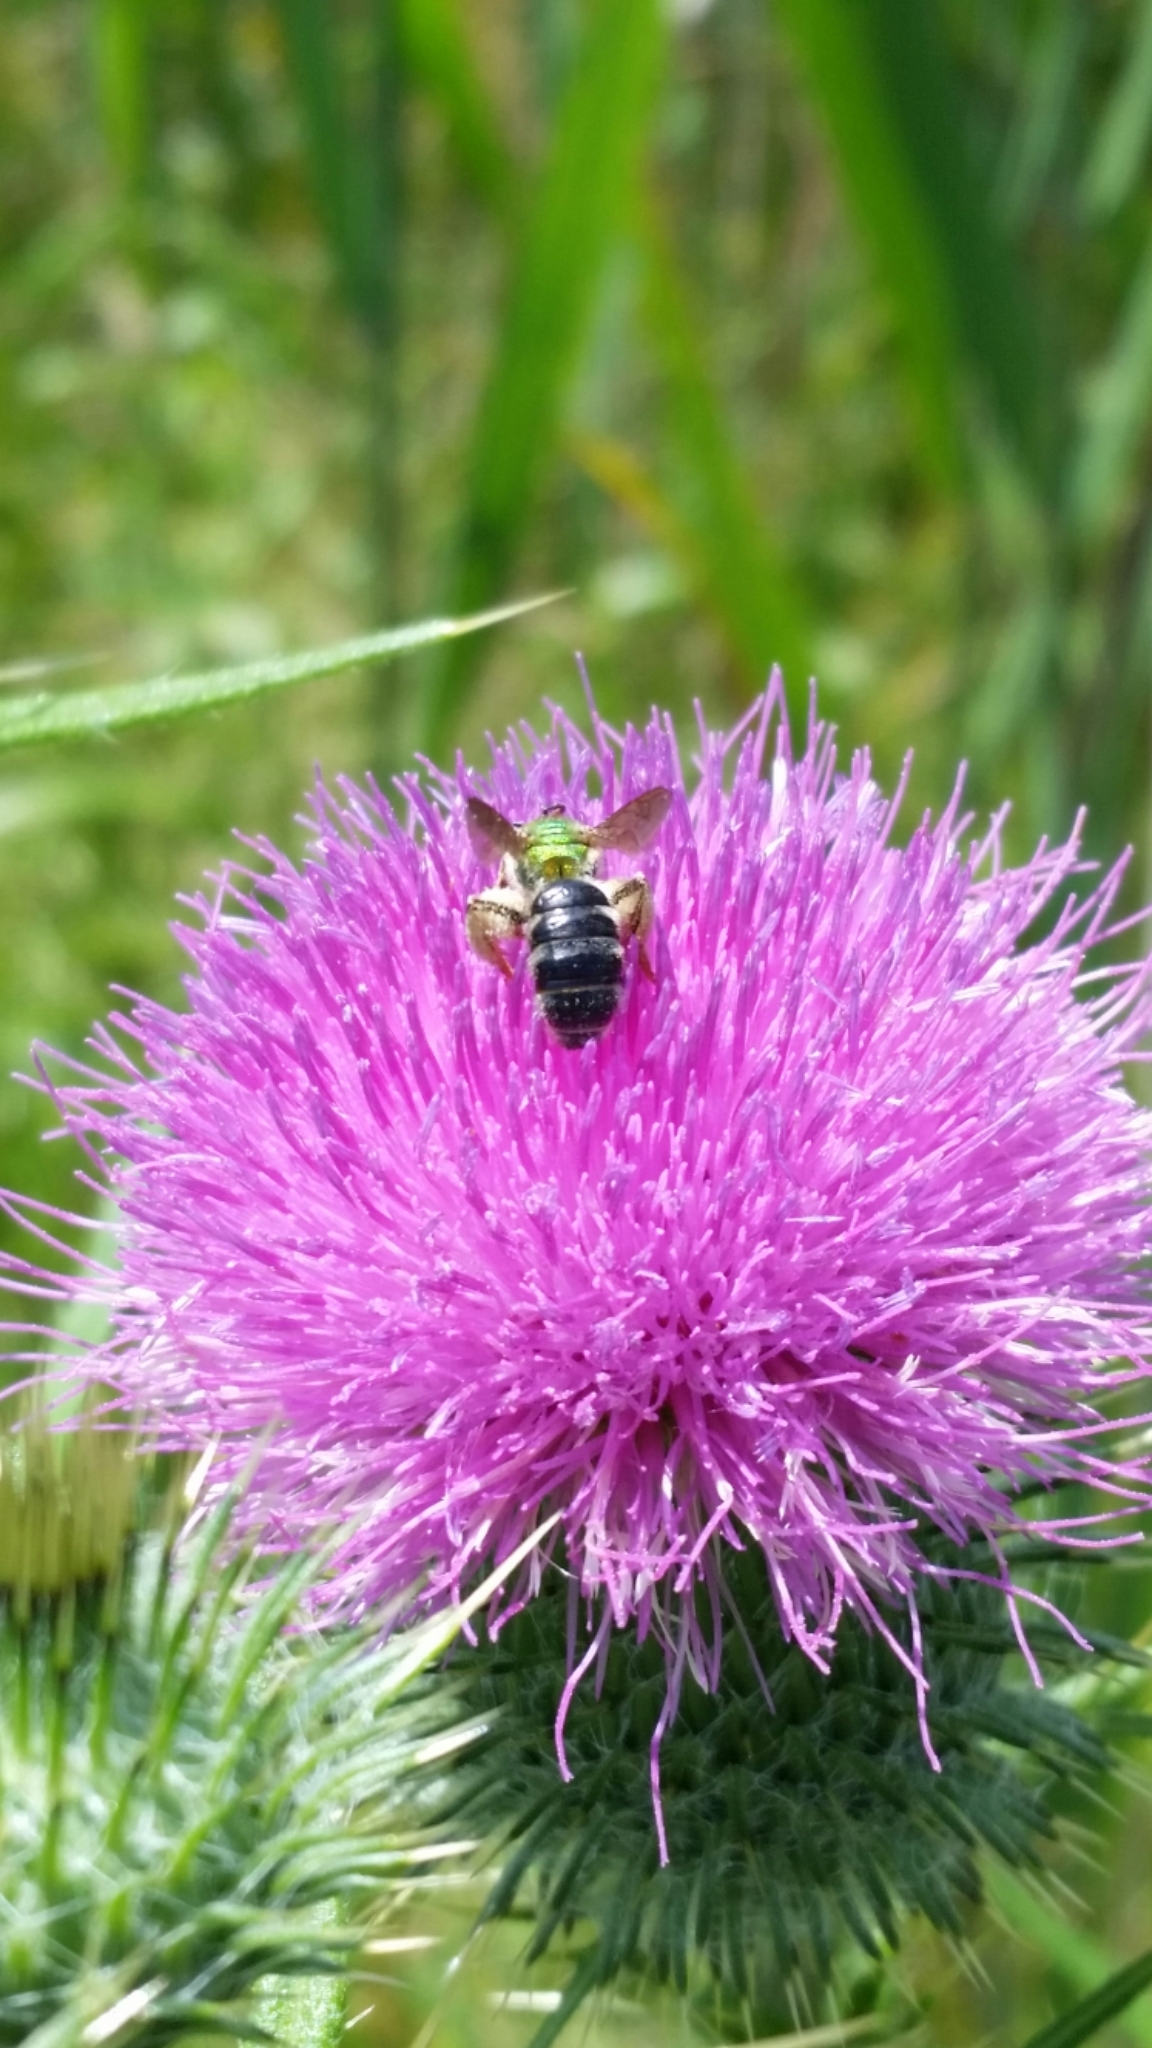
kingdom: Animalia
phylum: Arthropoda
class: Insecta
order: Hymenoptera
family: Halictidae
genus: Agapostemon
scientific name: Agapostemon virescens
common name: Bicolored striped sweat bee
